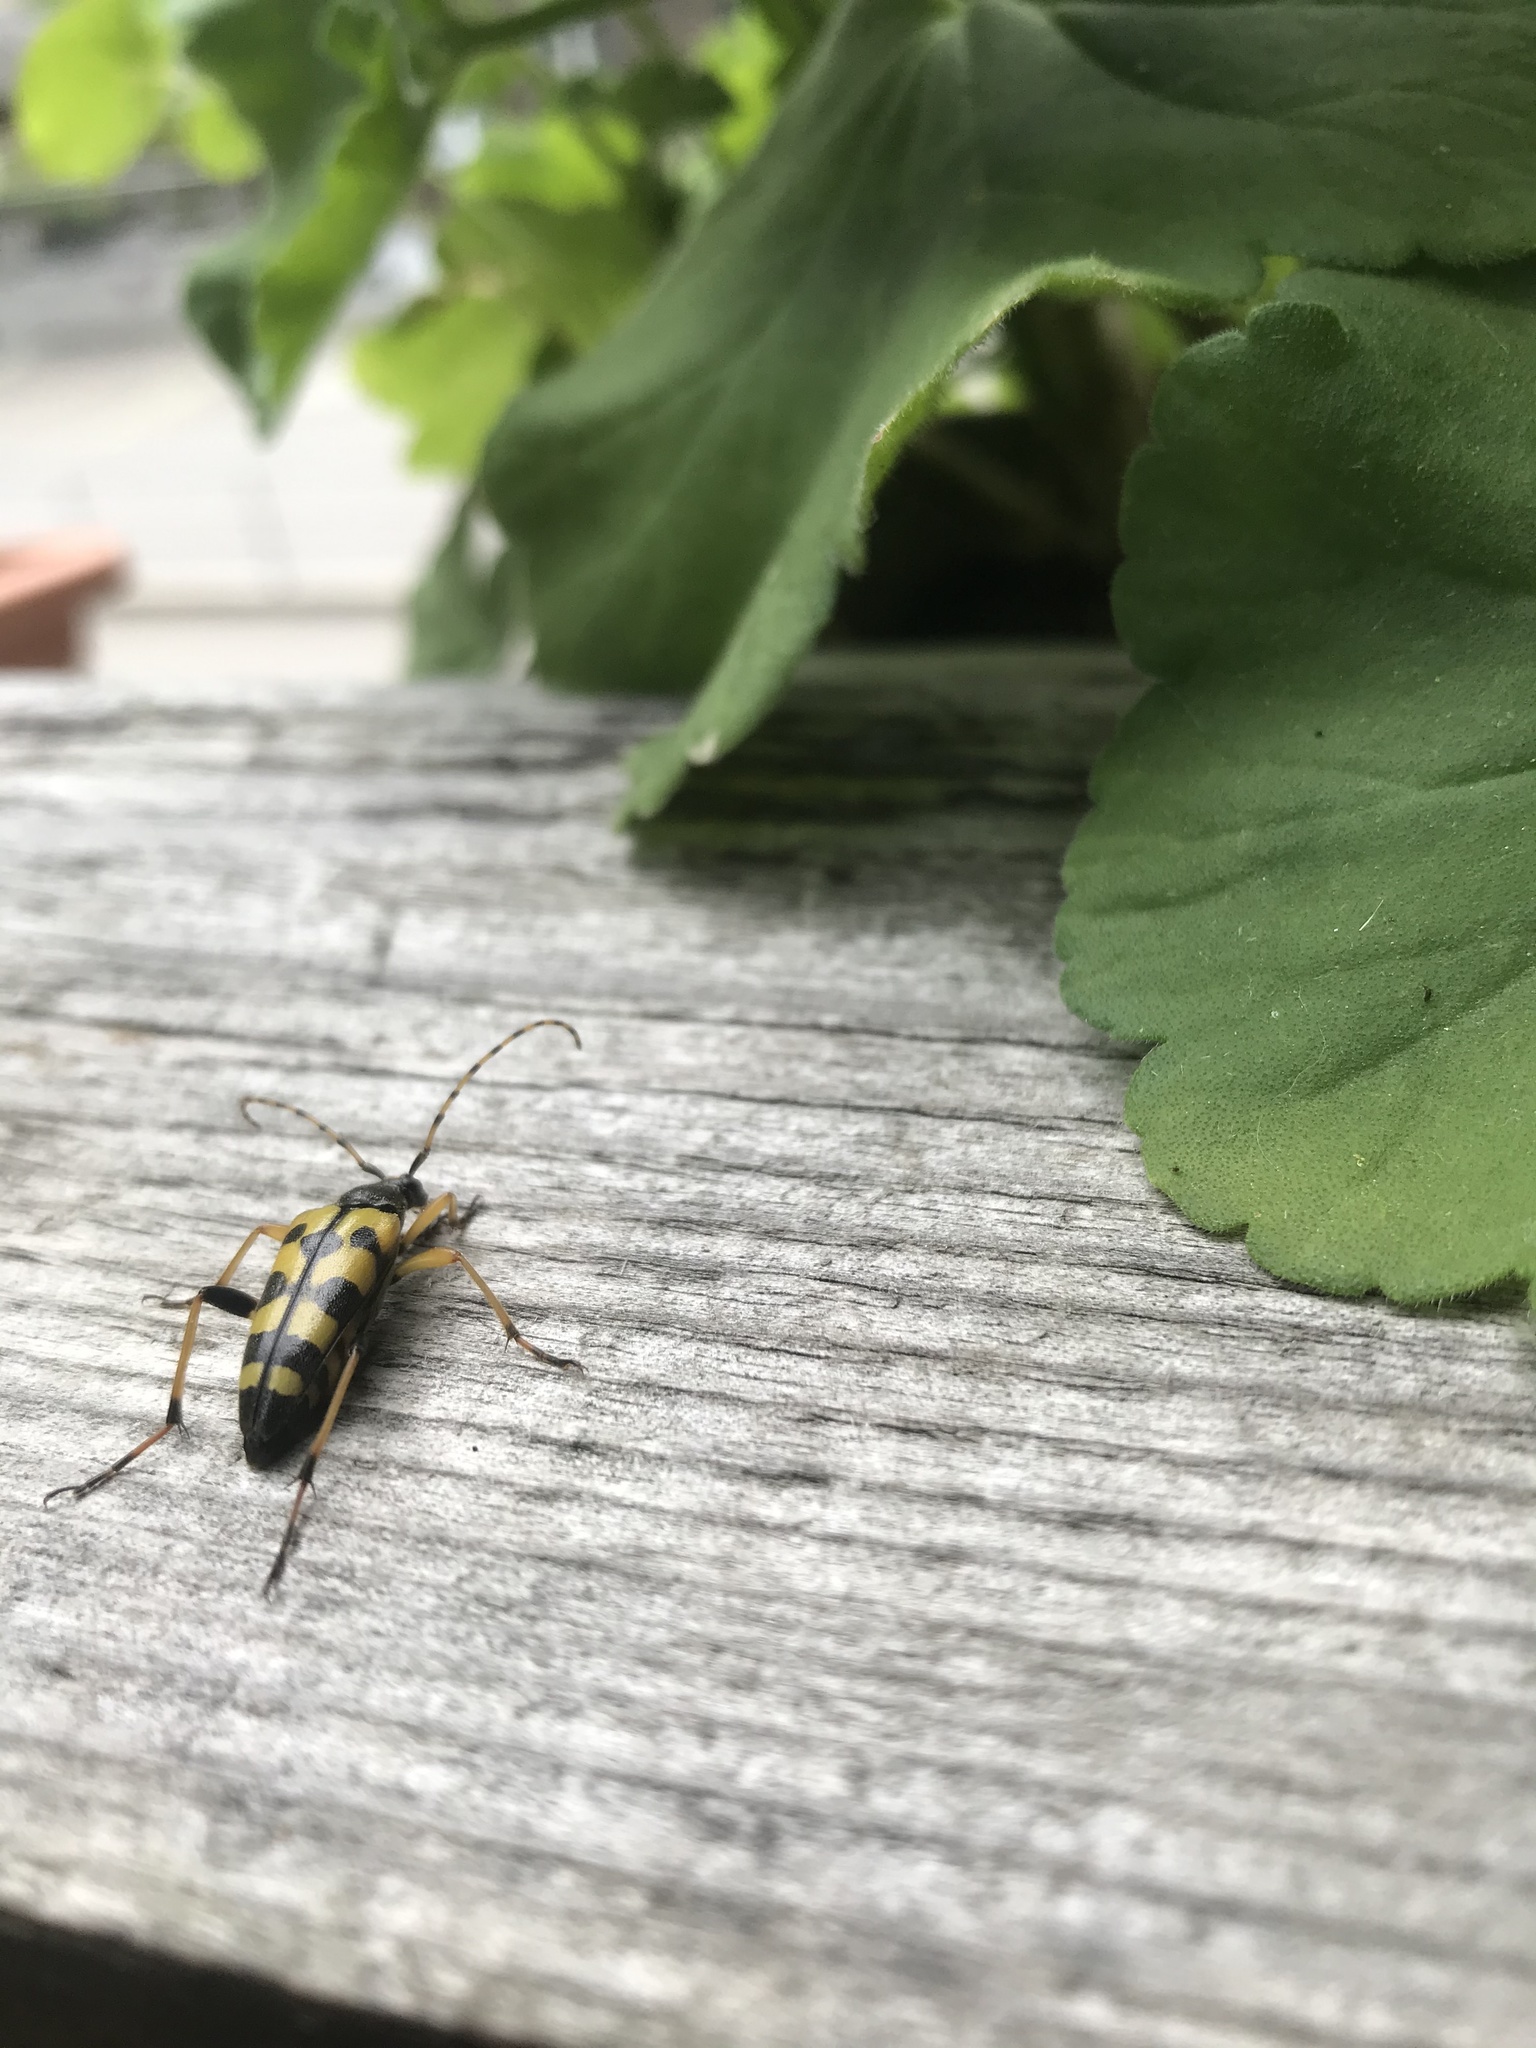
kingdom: Animalia
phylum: Arthropoda
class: Insecta
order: Coleoptera
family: Cerambycidae
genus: Rutpela
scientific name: Rutpela maculata
